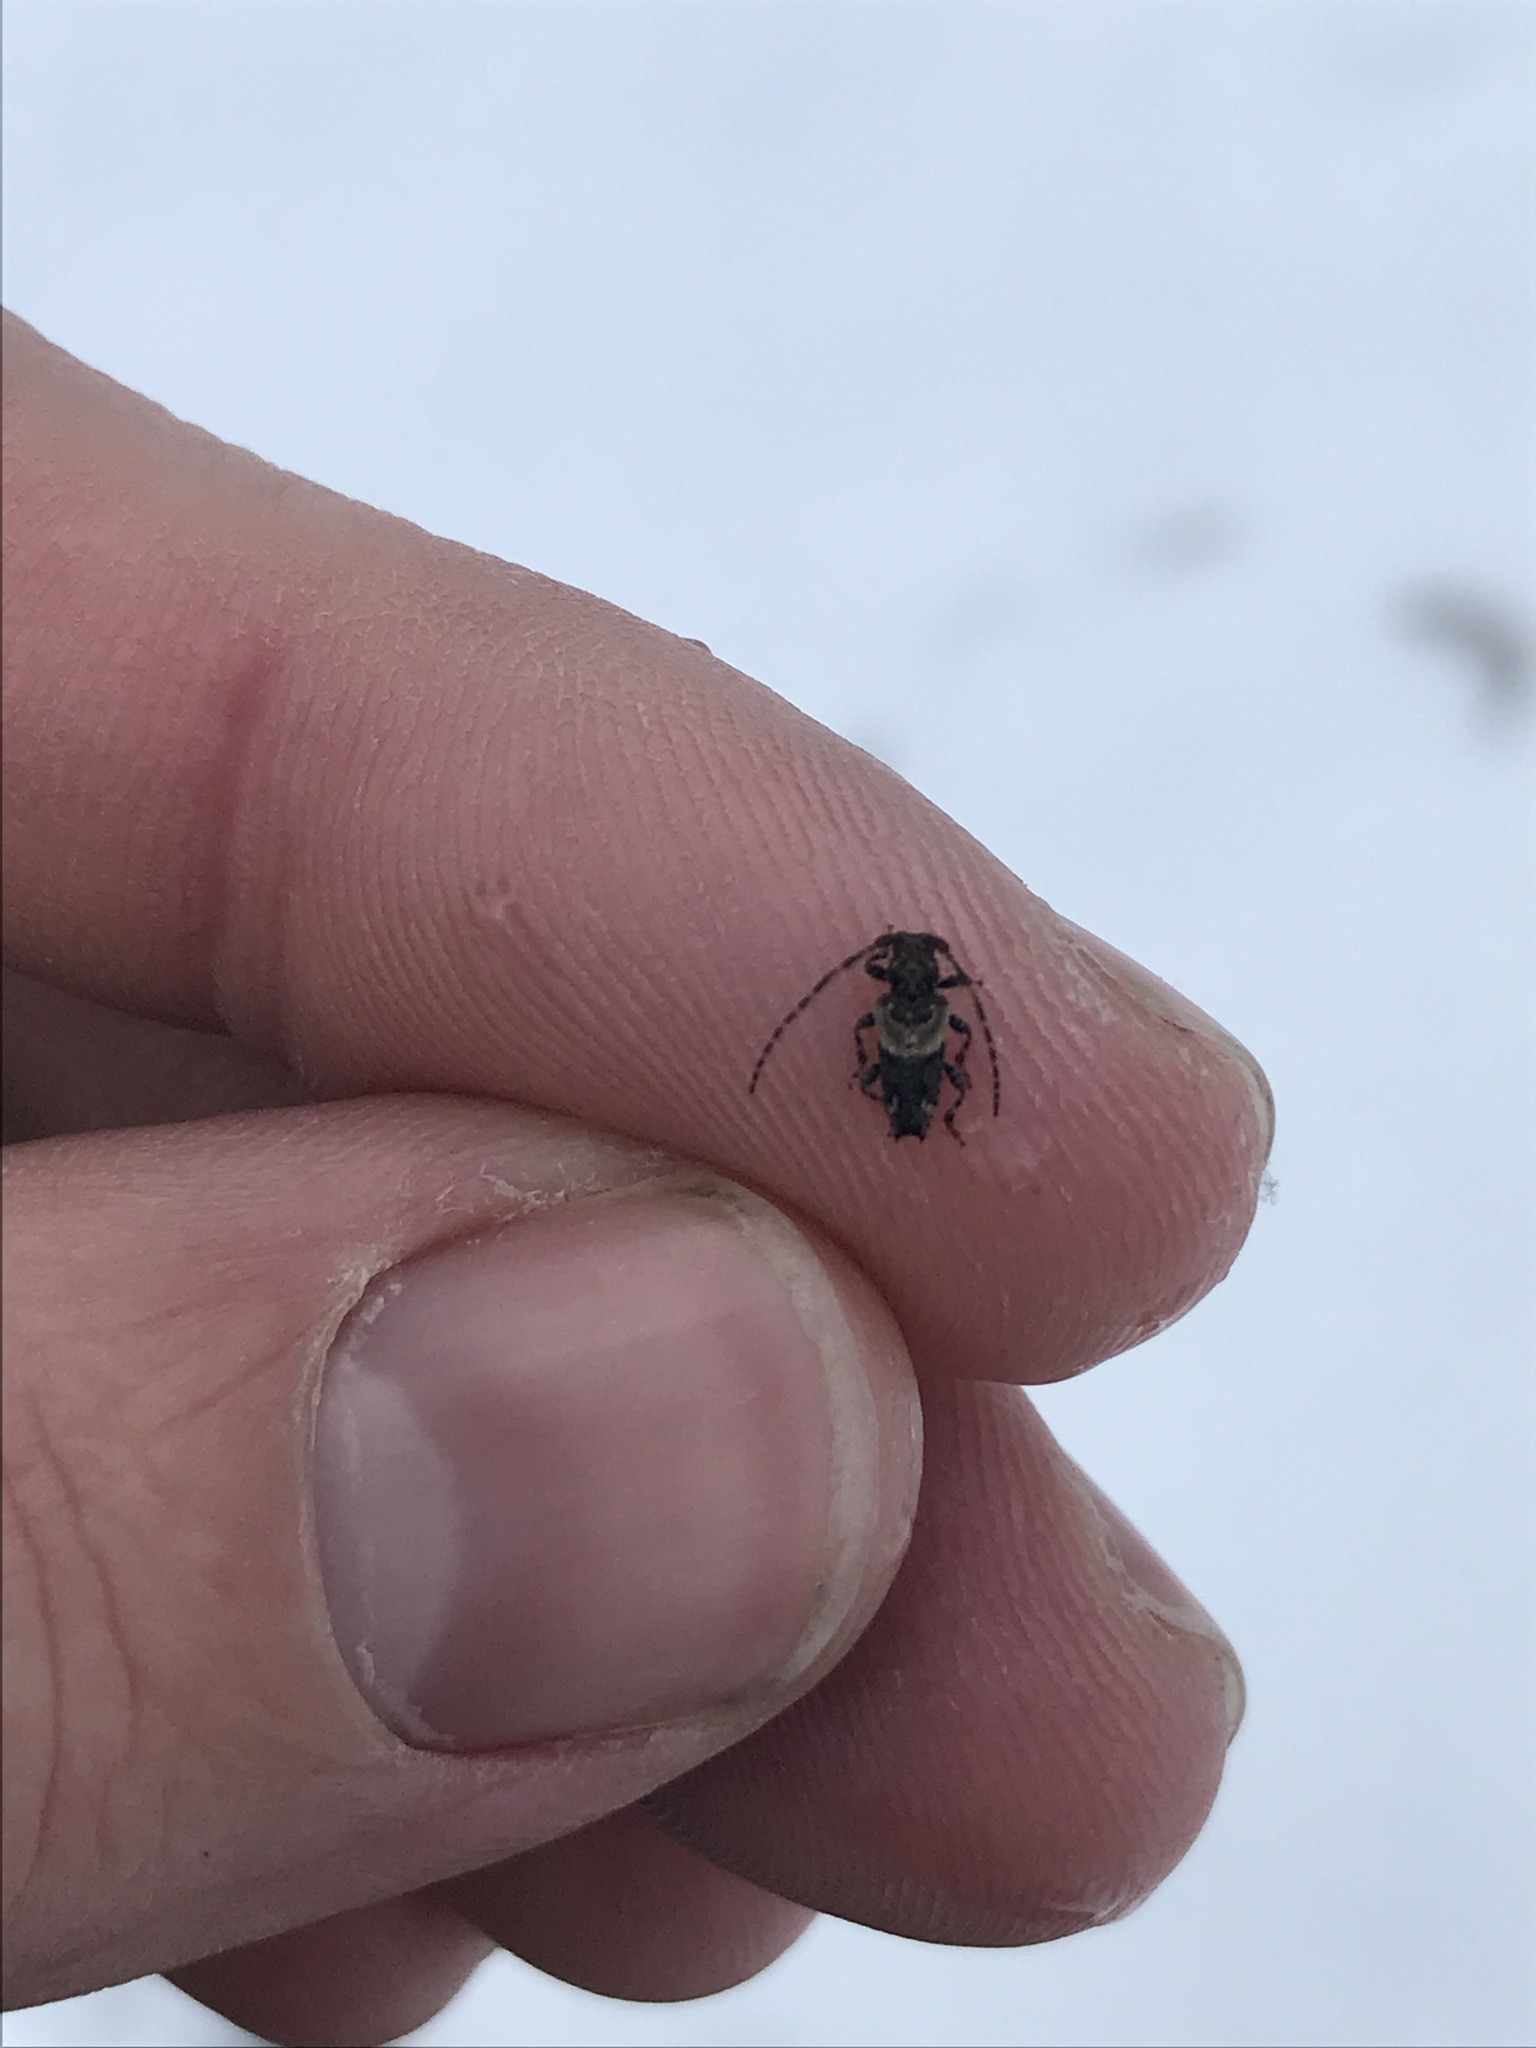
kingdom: Animalia
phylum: Arthropoda
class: Insecta
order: Coleoptera
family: Cerambycidae
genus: Pogonocherus
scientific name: Pogonocherus hispidus
